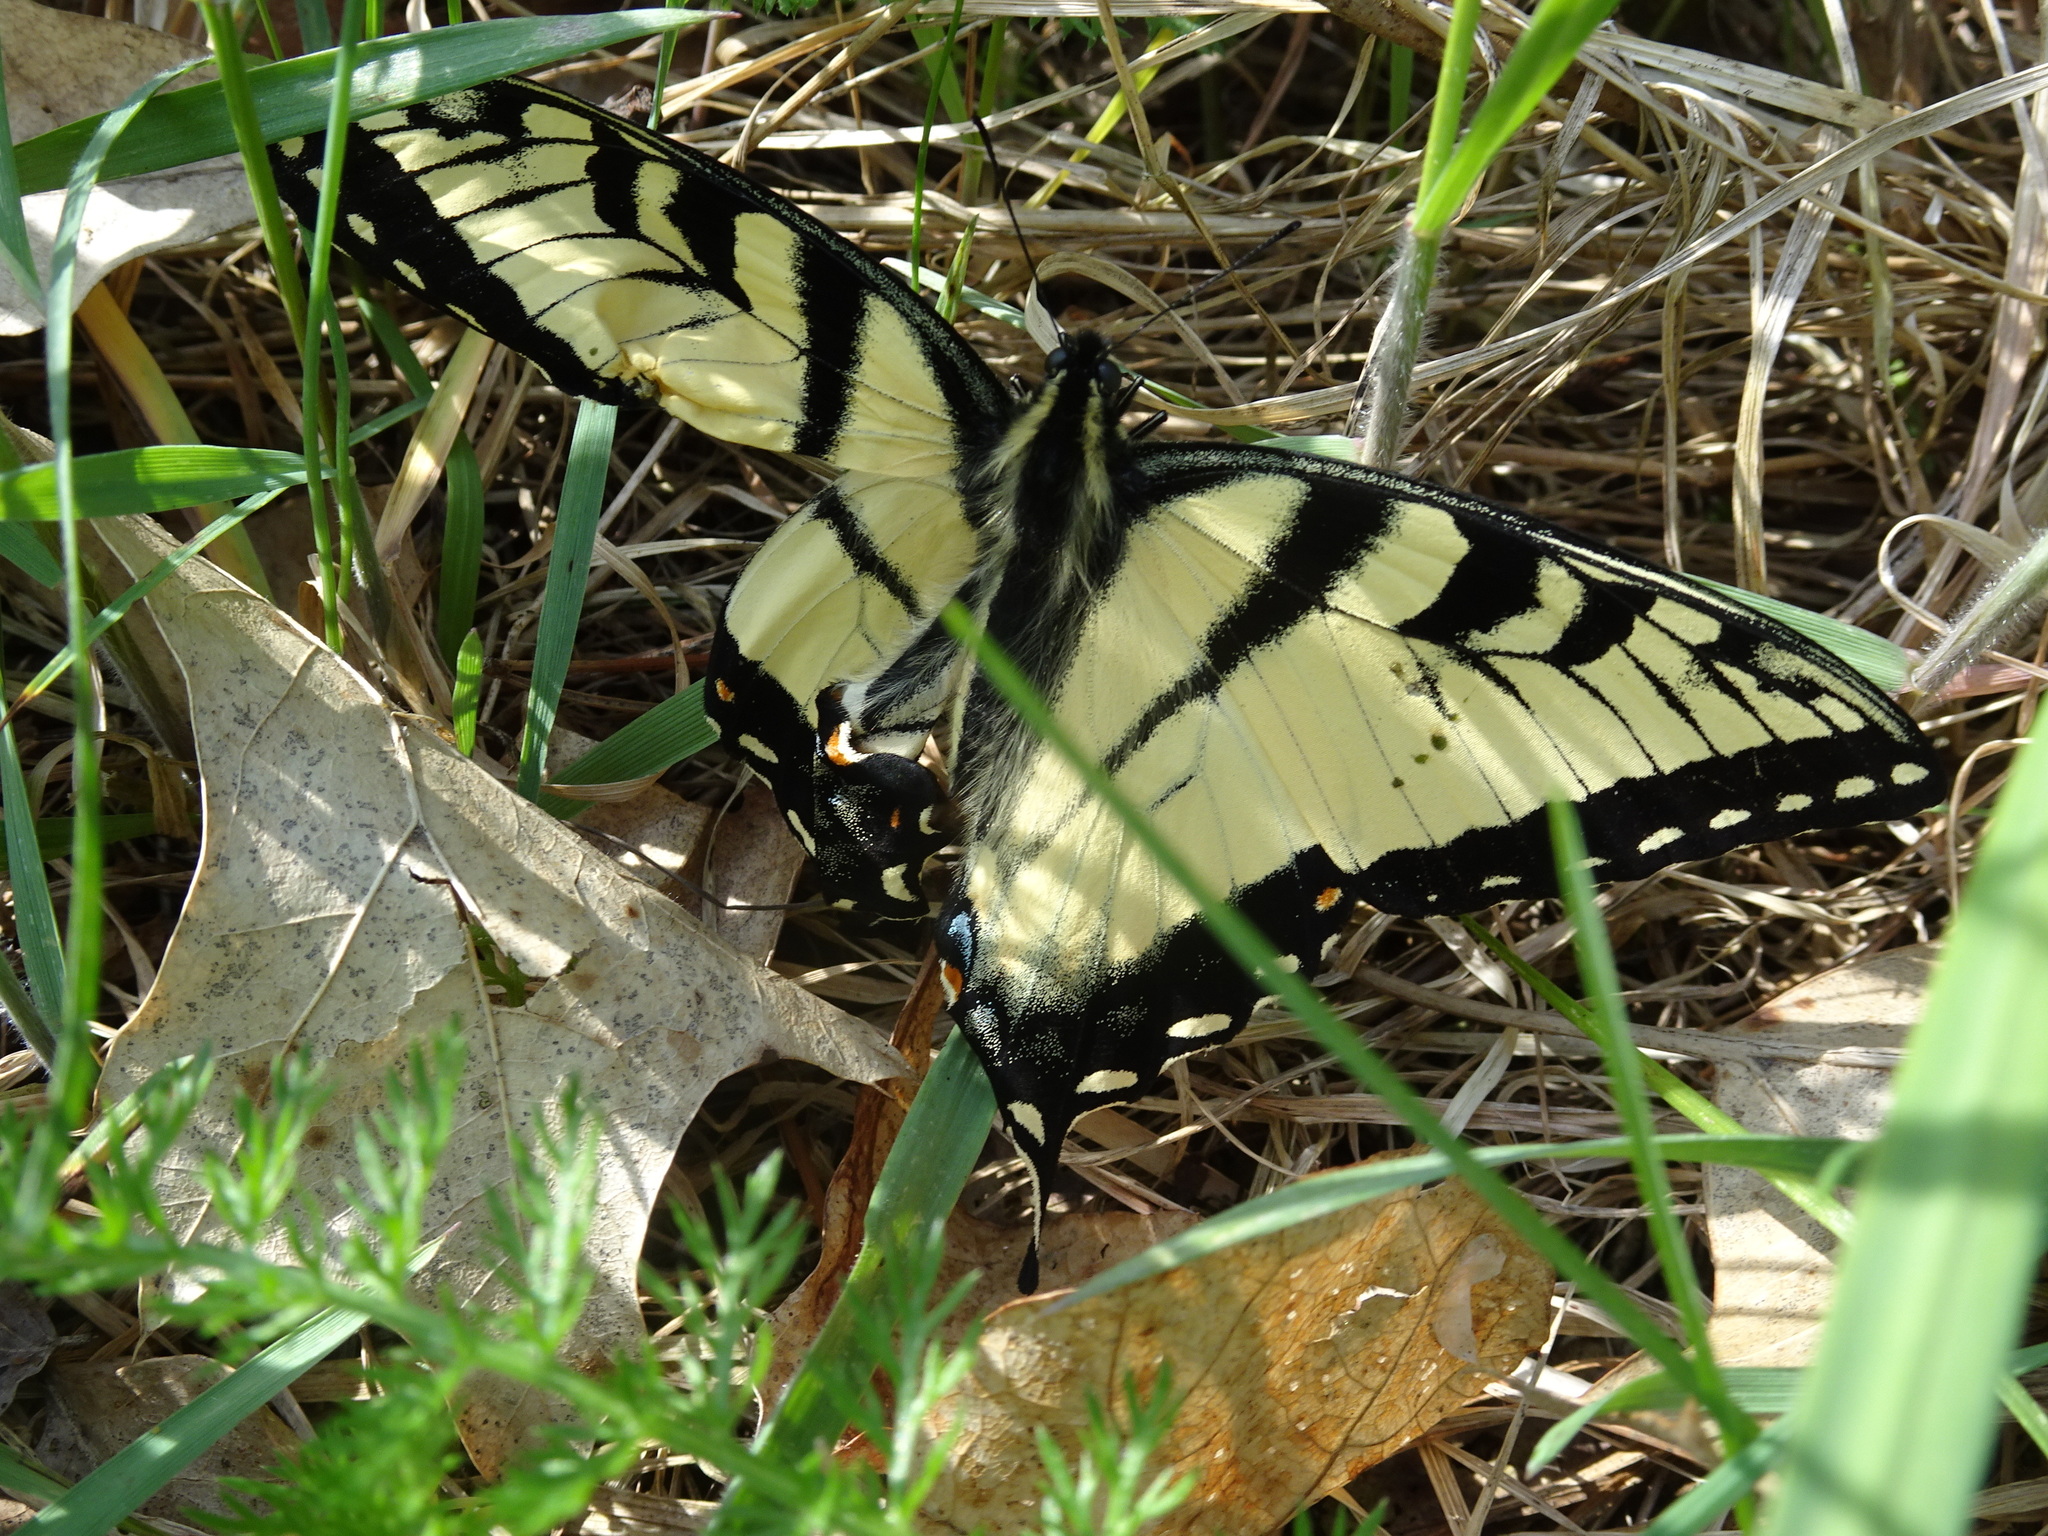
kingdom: Animalia
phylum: Arthropoda
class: Insecta
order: Lepidoptera
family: Papilionidae
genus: Papilio
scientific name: Papilio glaucus
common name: Tiger swallowtail
